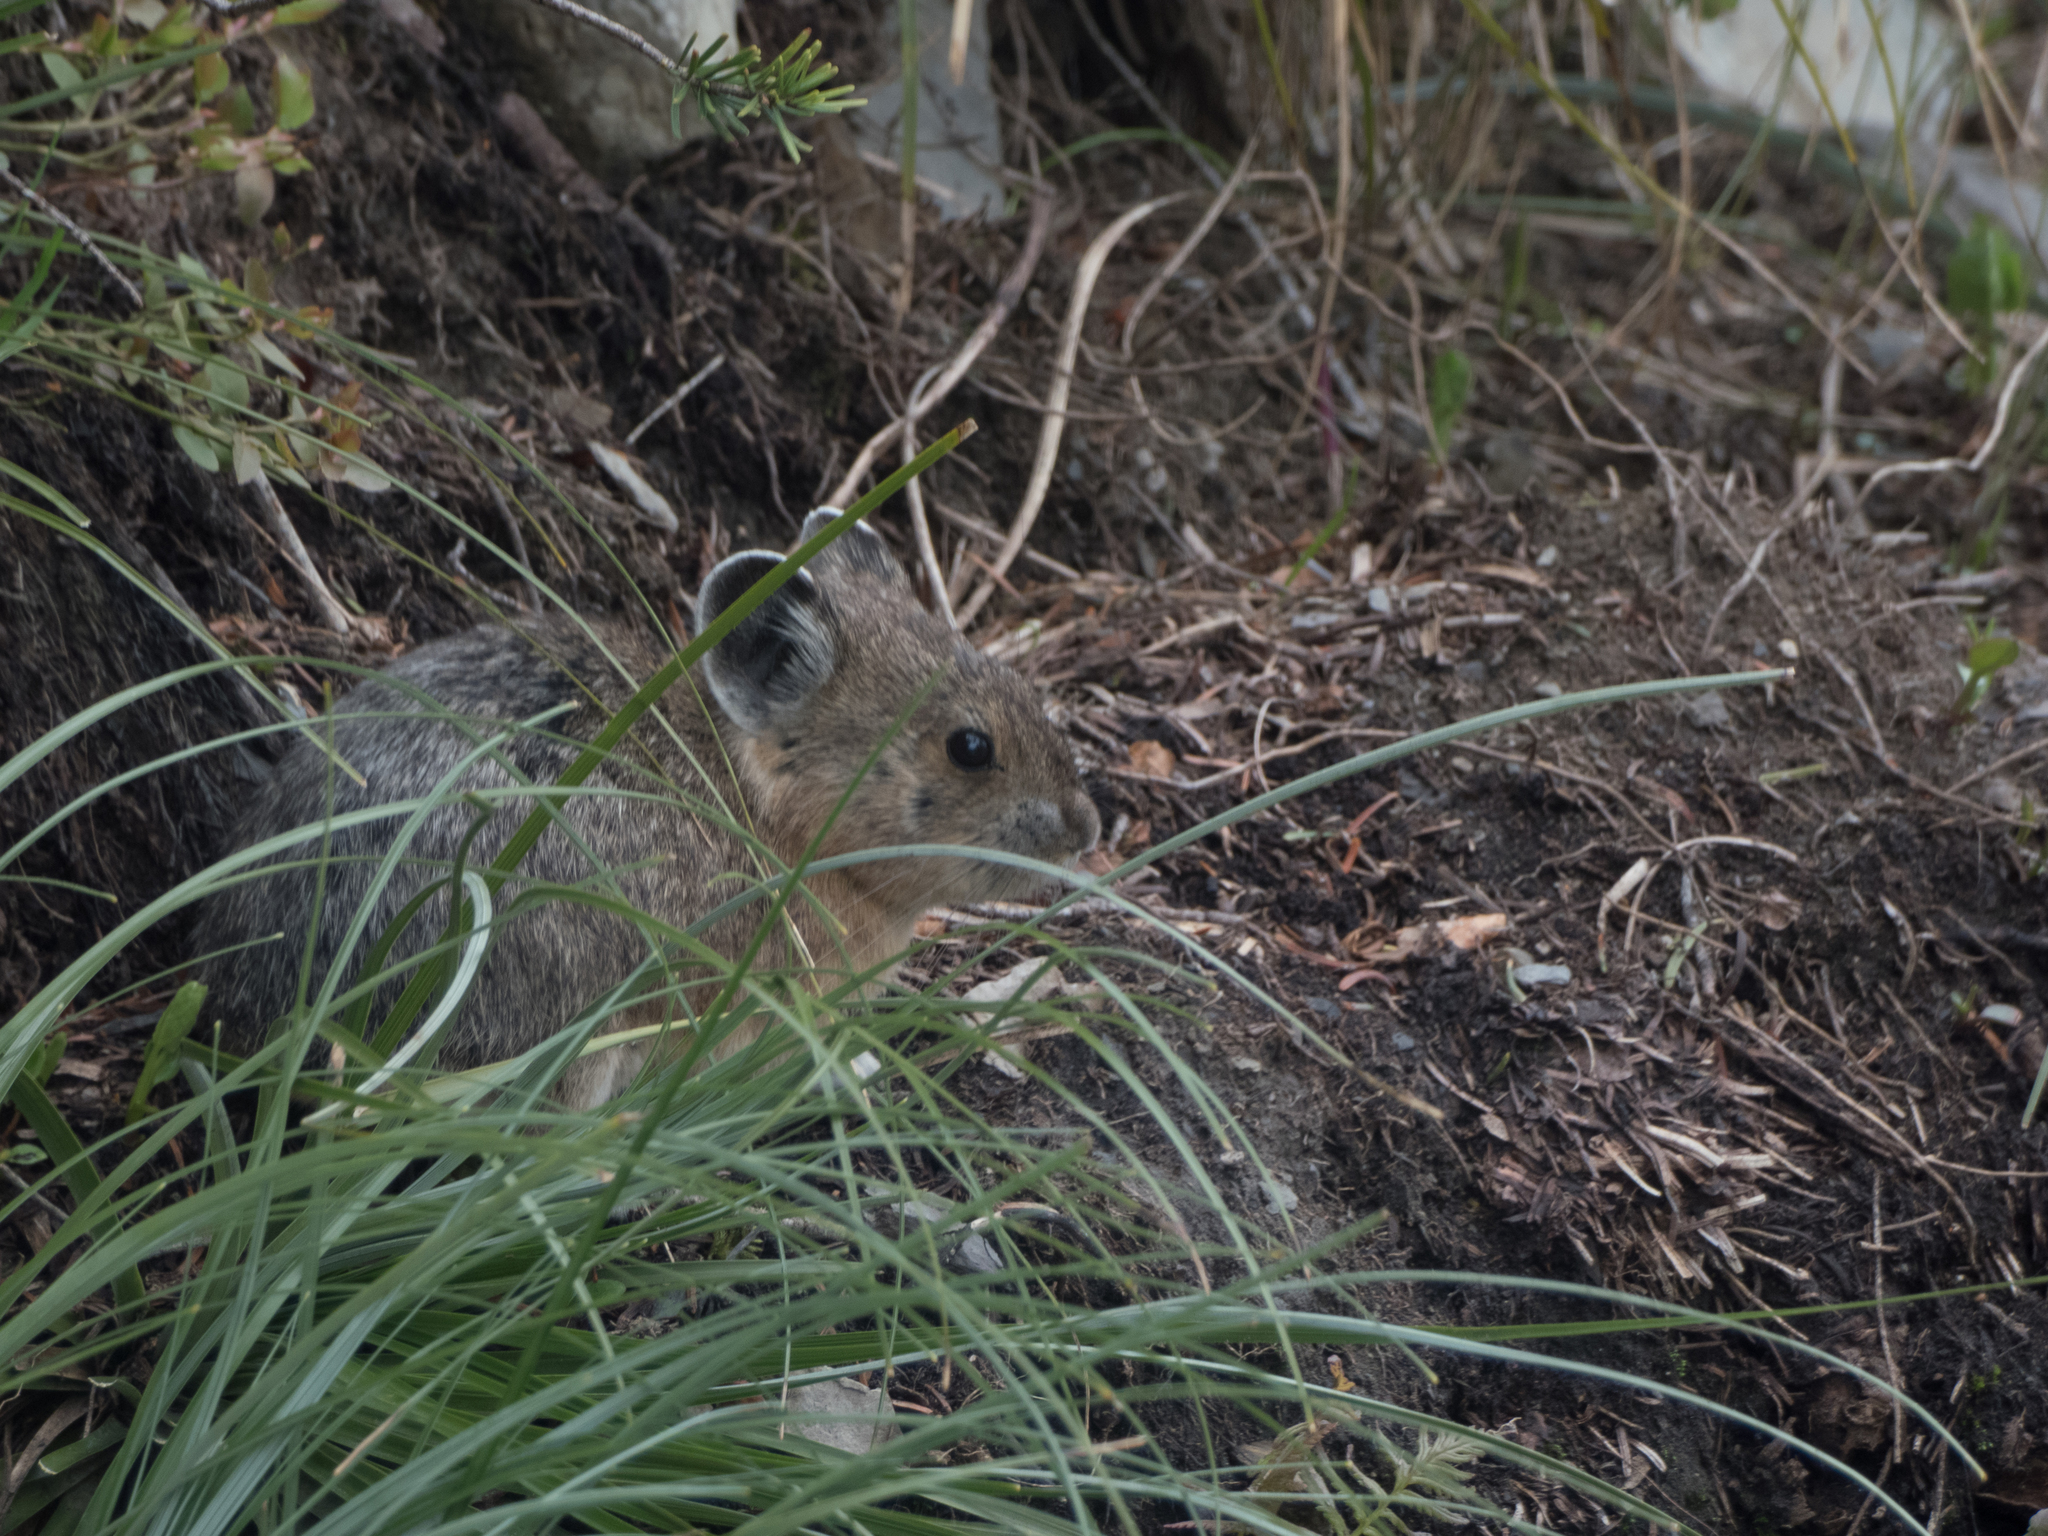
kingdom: Animalia
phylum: Chordata
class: Mammalia
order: Lagomorpha
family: Ochotonidae
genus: Ochotona
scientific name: Ochotona princeps
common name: American pika
